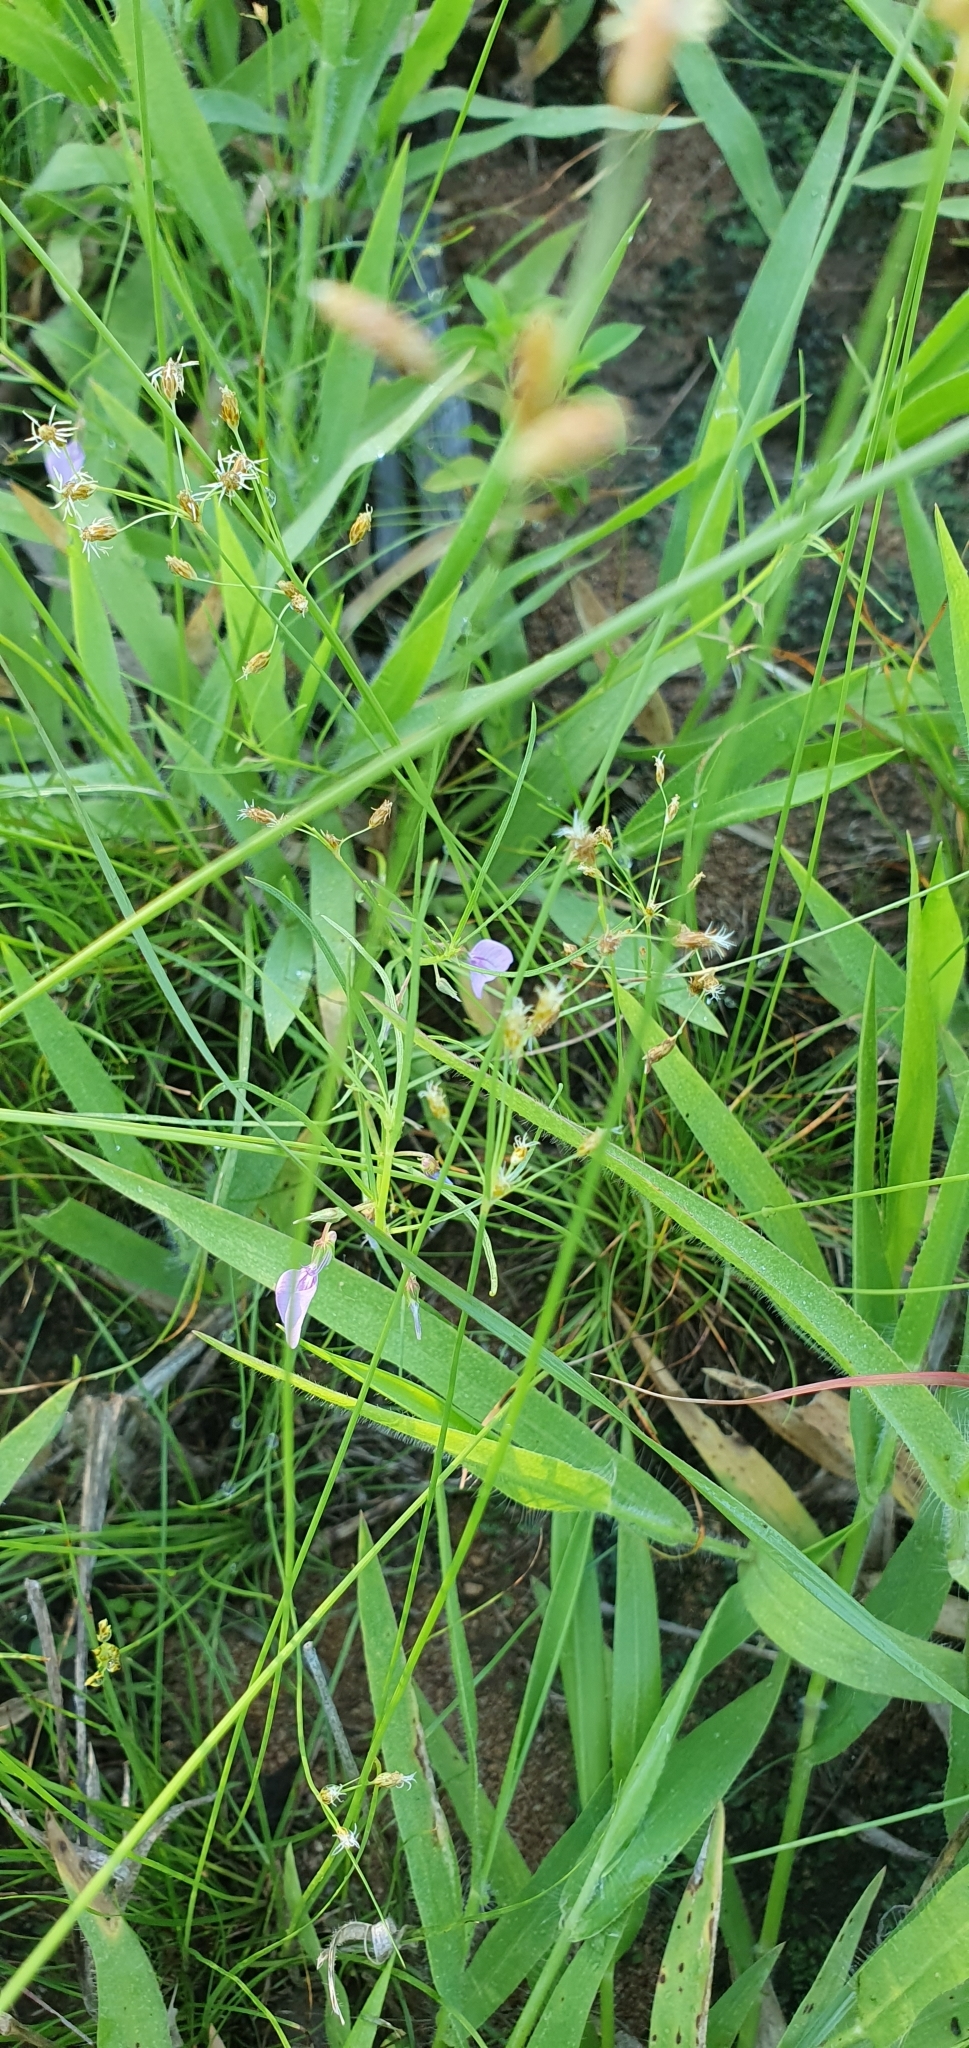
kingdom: Plantae
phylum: Tracheophyta
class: Magnoliopsida
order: Malpighiales
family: Violaceae
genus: Pigea
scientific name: Pigea enneasperma
